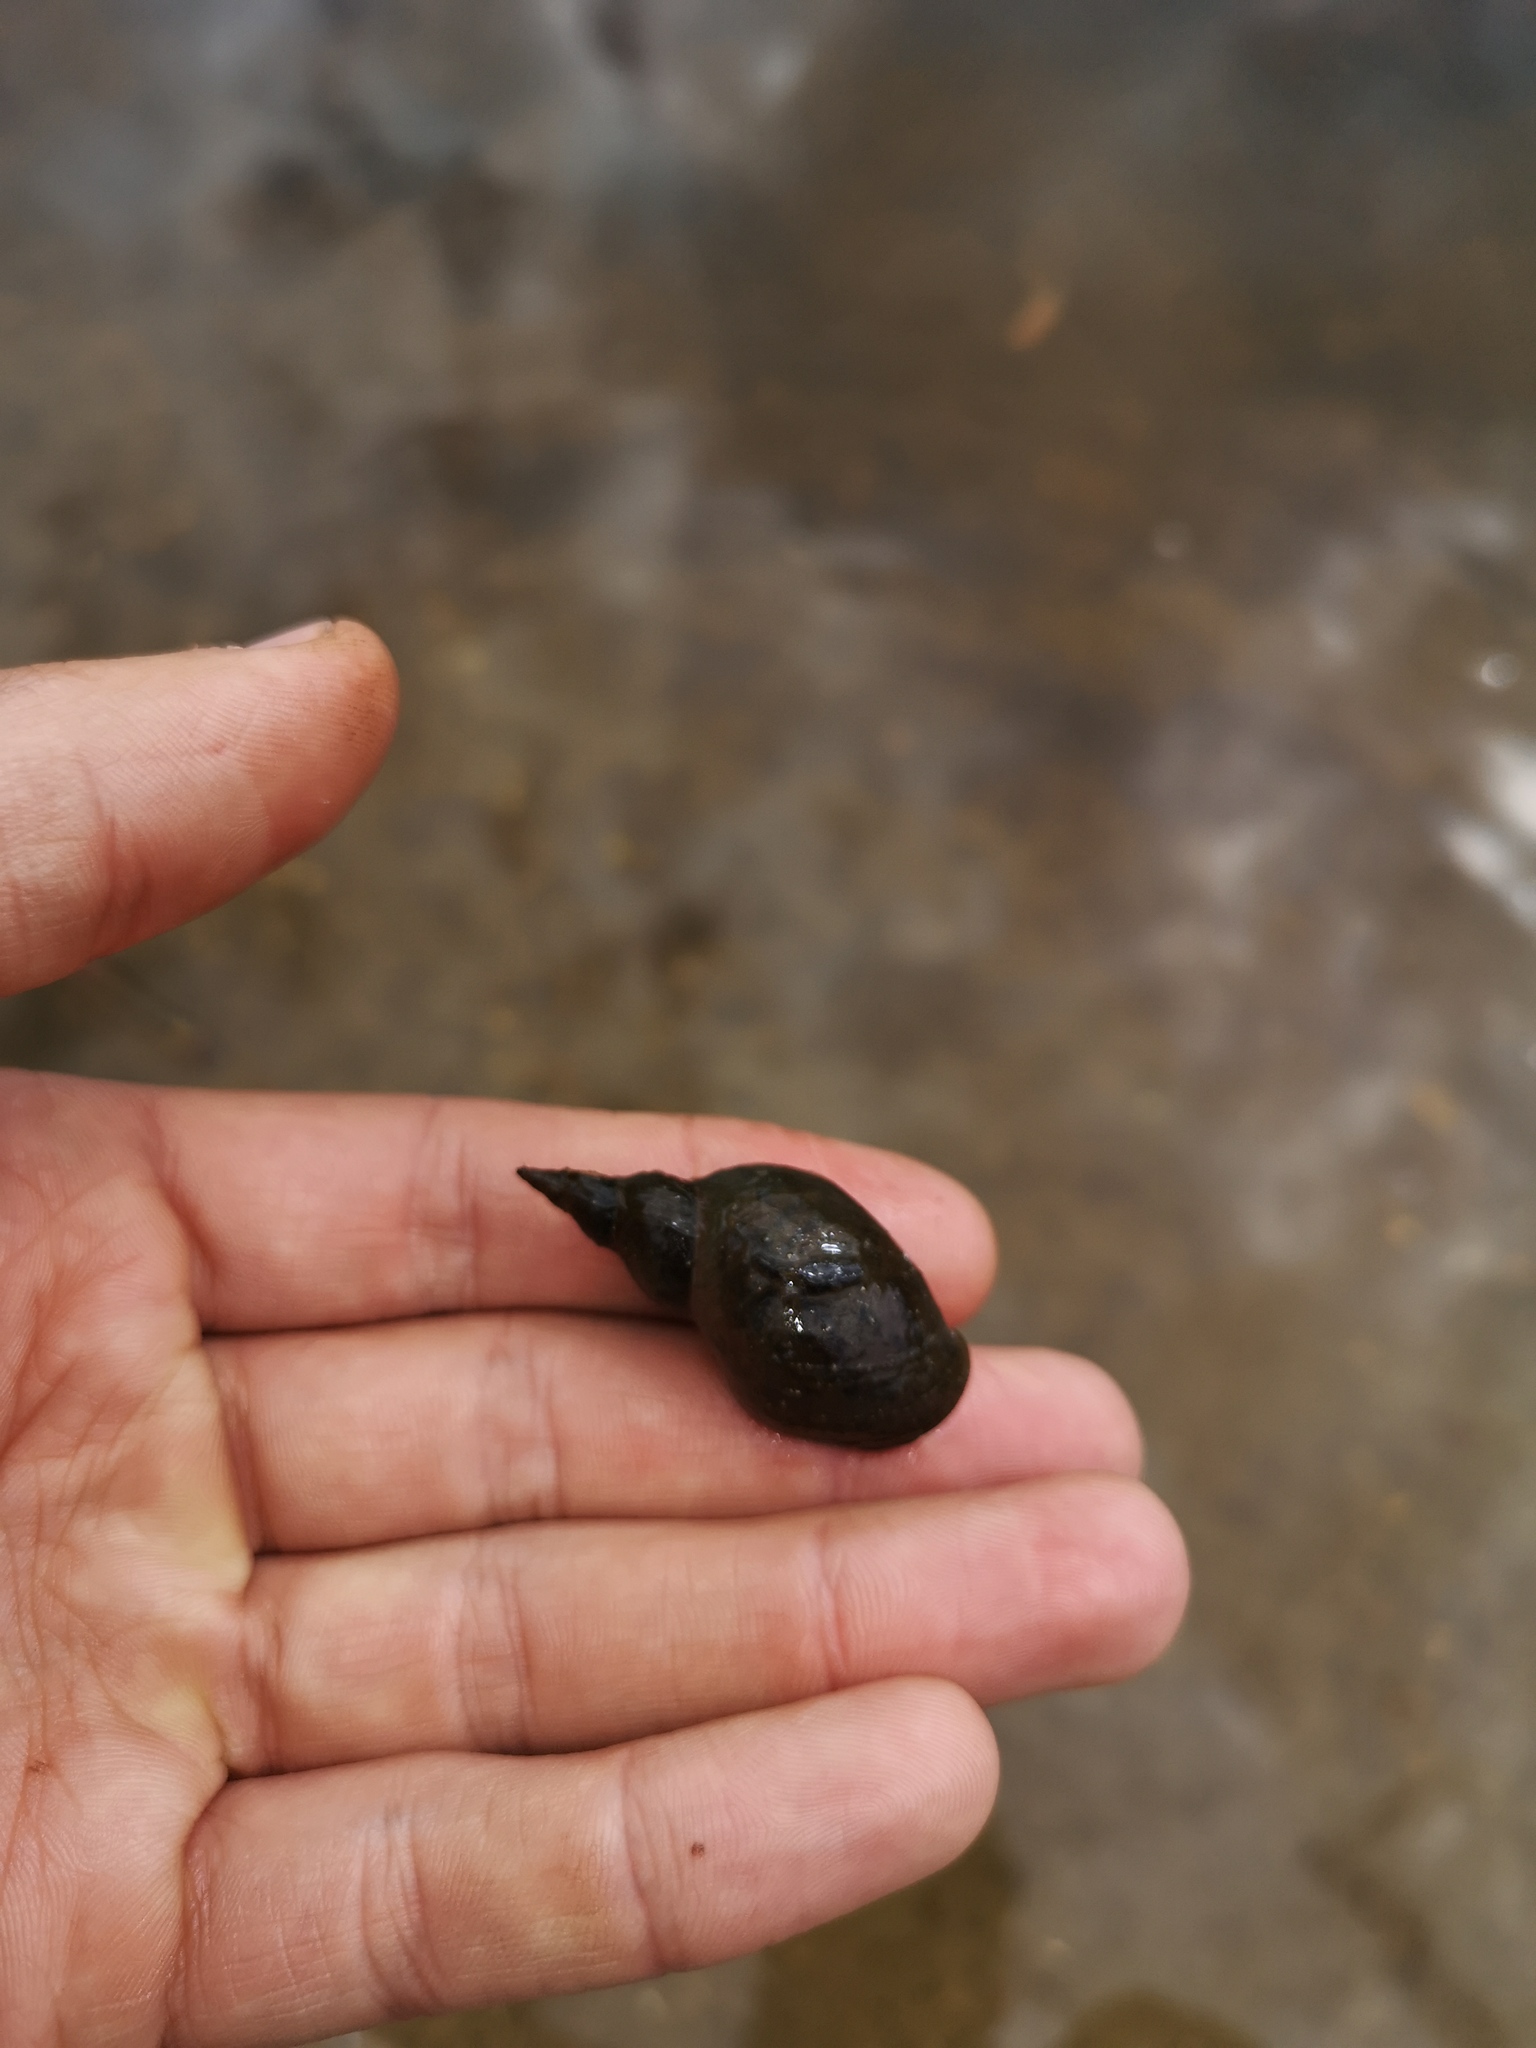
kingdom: Animalia
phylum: Mollusca
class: Gastropoda
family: Lymnaeidae
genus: Lymnaea
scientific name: Lymnaea stagnalis
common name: Great pond snail
